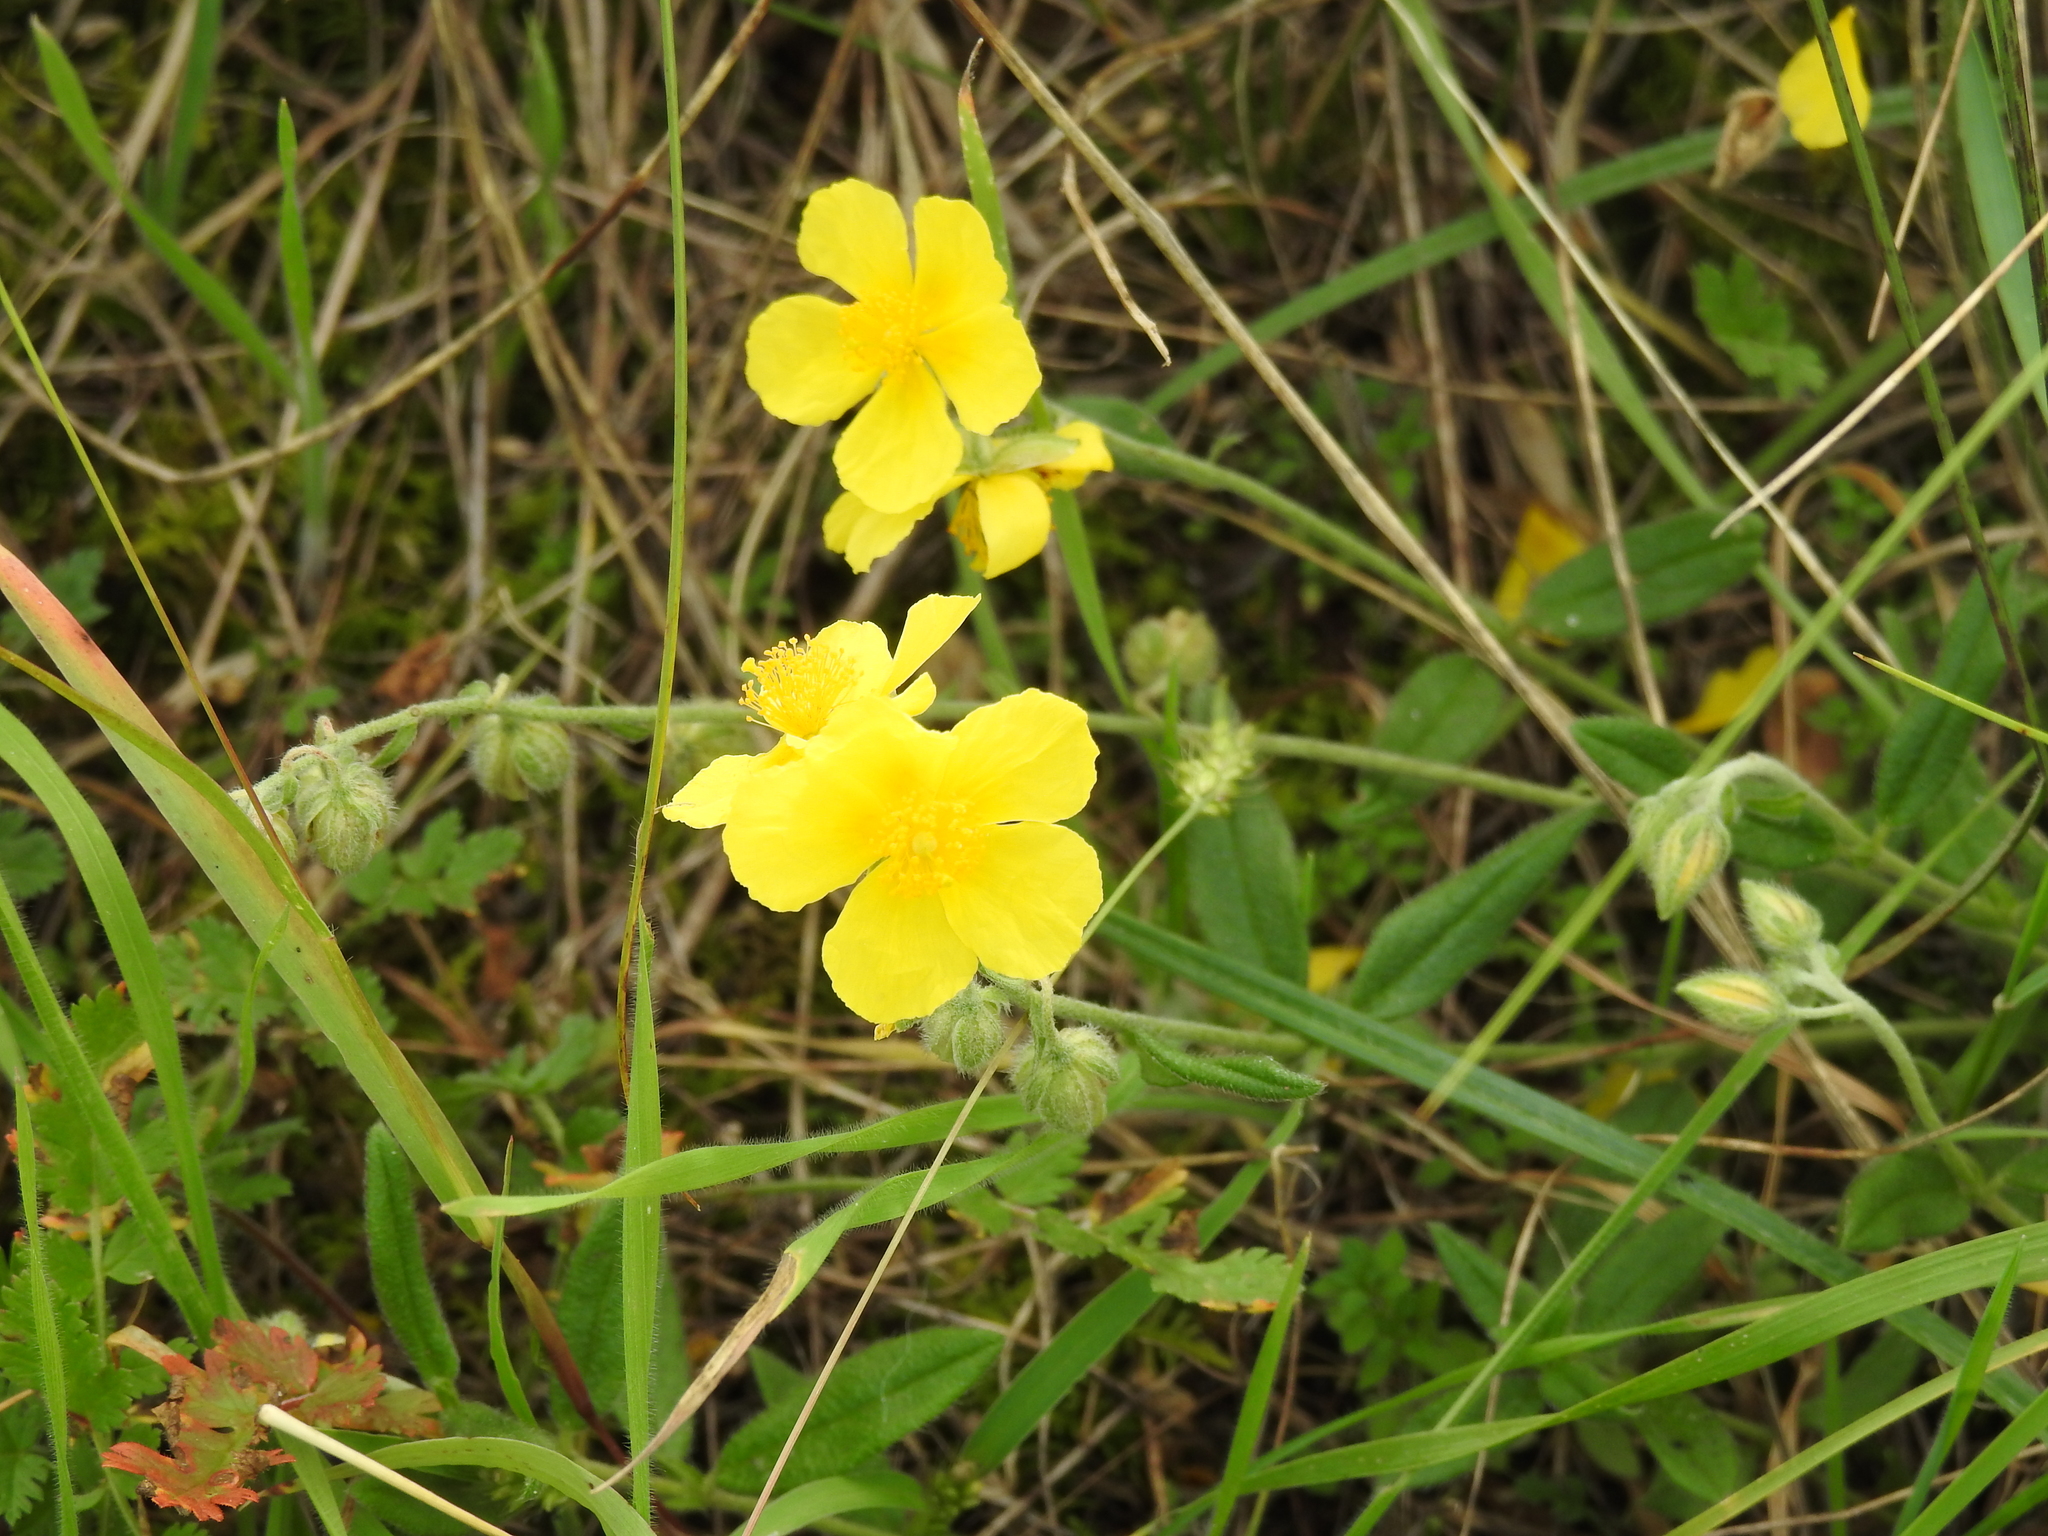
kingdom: Plantae
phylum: Tracheophyta
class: Magnoliopsida
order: Malvales
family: Cistaceae
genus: Helianthemum
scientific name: Helianthemum nummularium
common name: Common rock-rose
